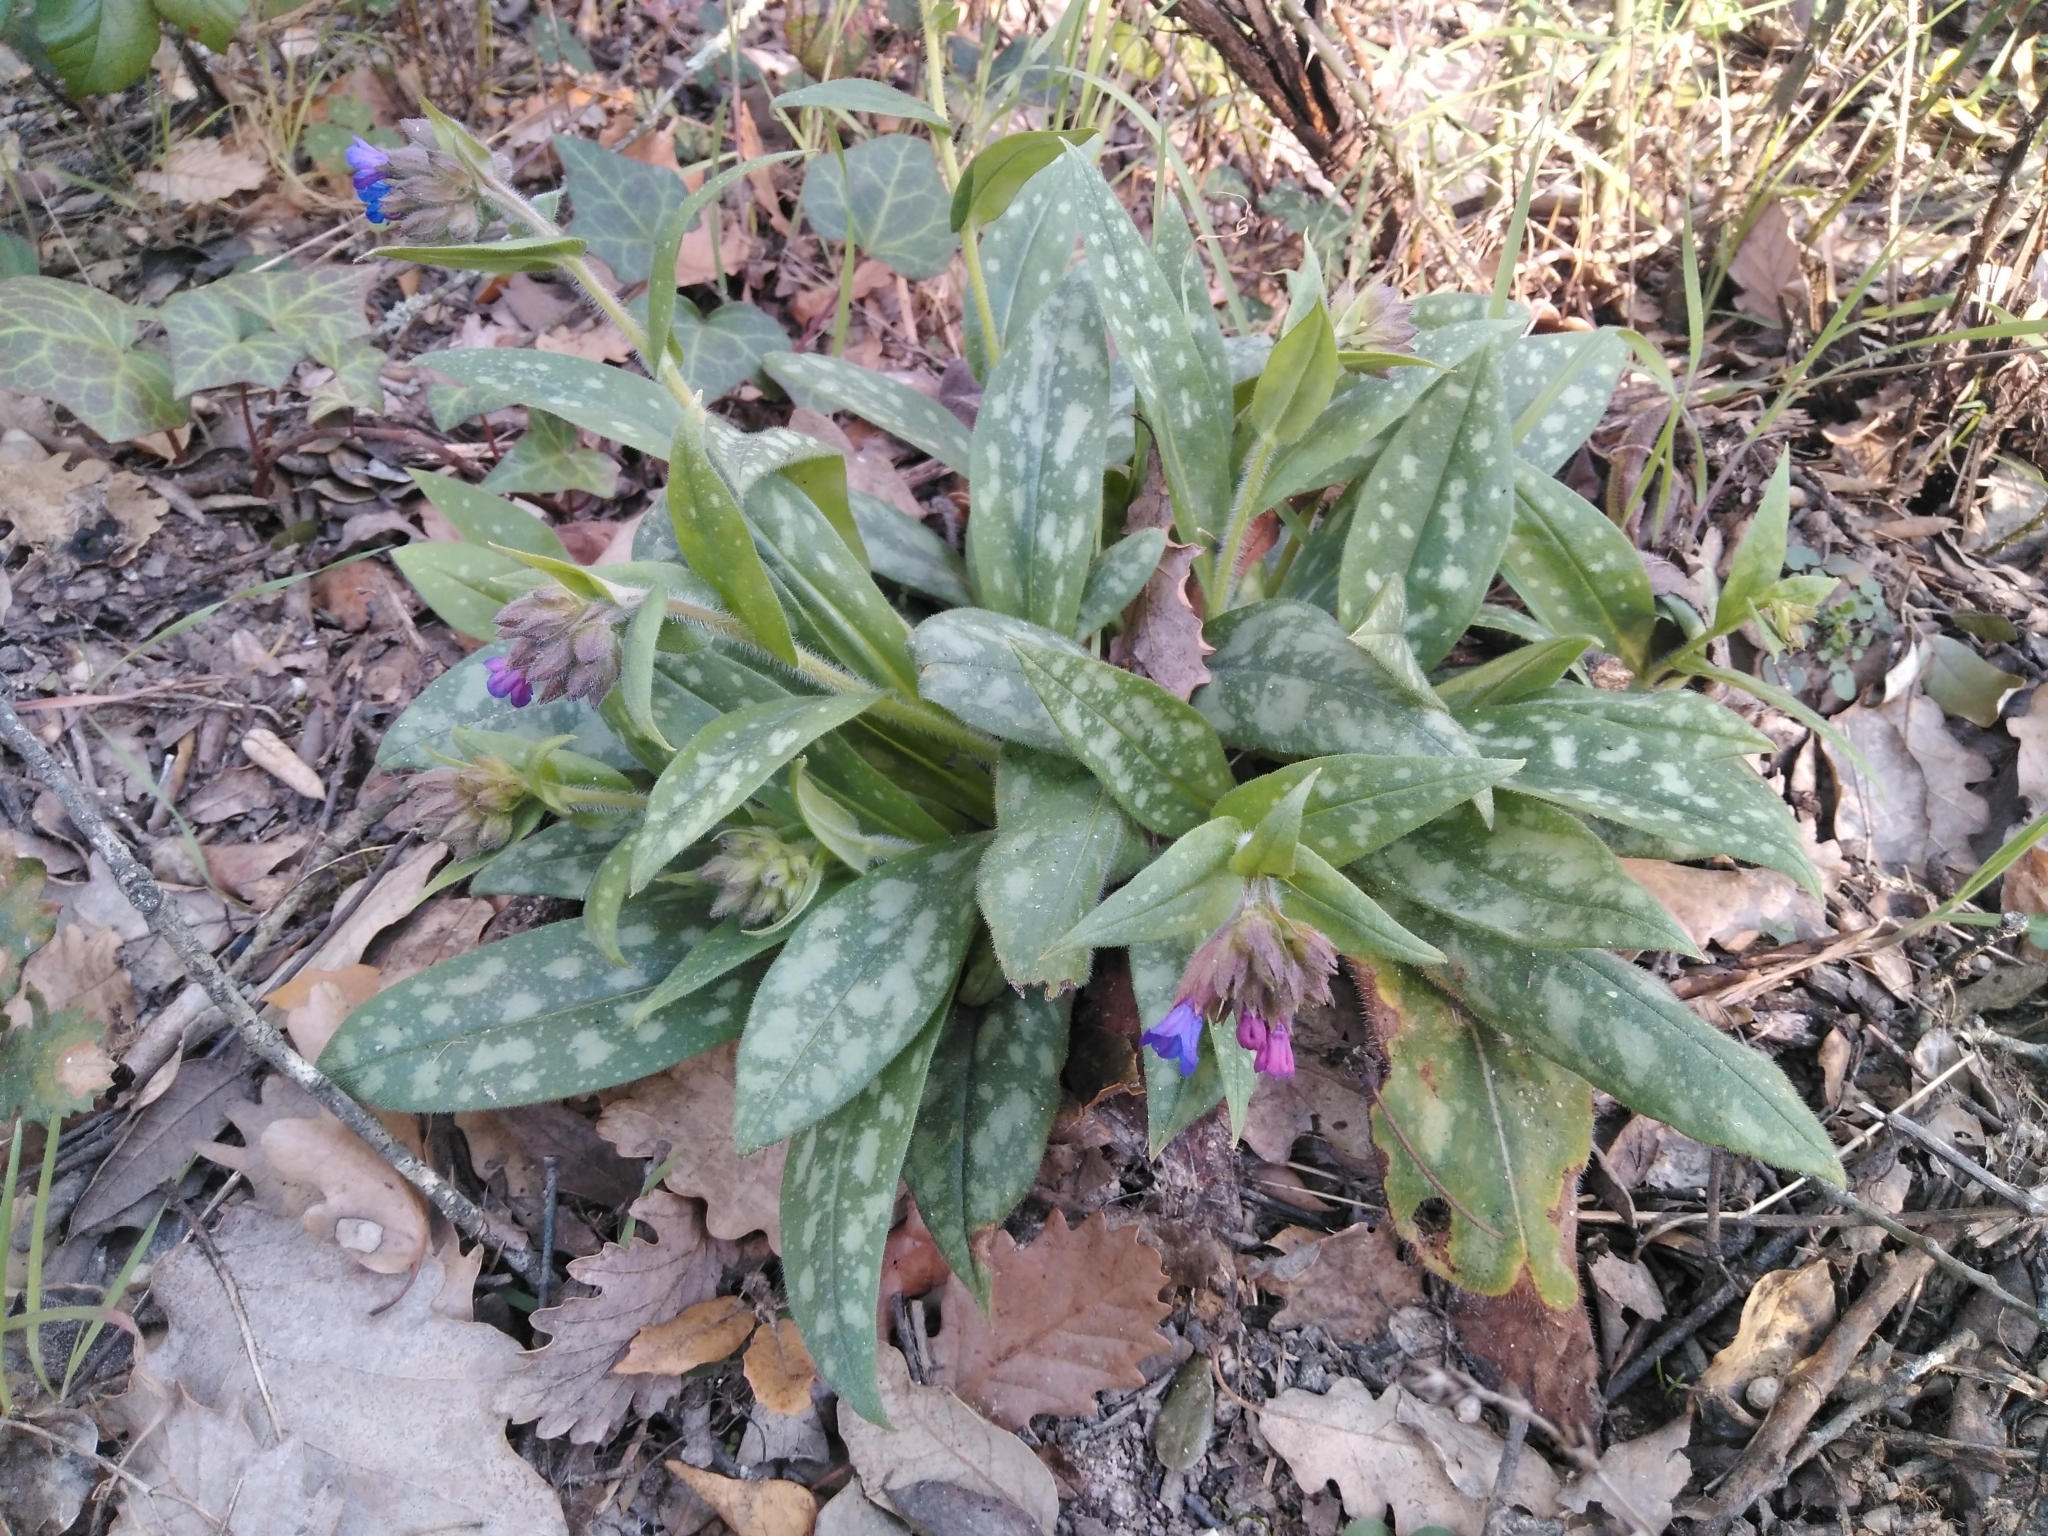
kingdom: Plantae
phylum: Tracheophyta
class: Magnoliopsida
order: Boraginales
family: Boraginaceae
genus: Pulmonaria
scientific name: Pulmonaria longifolia
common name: Narrow-leaved lungwort
